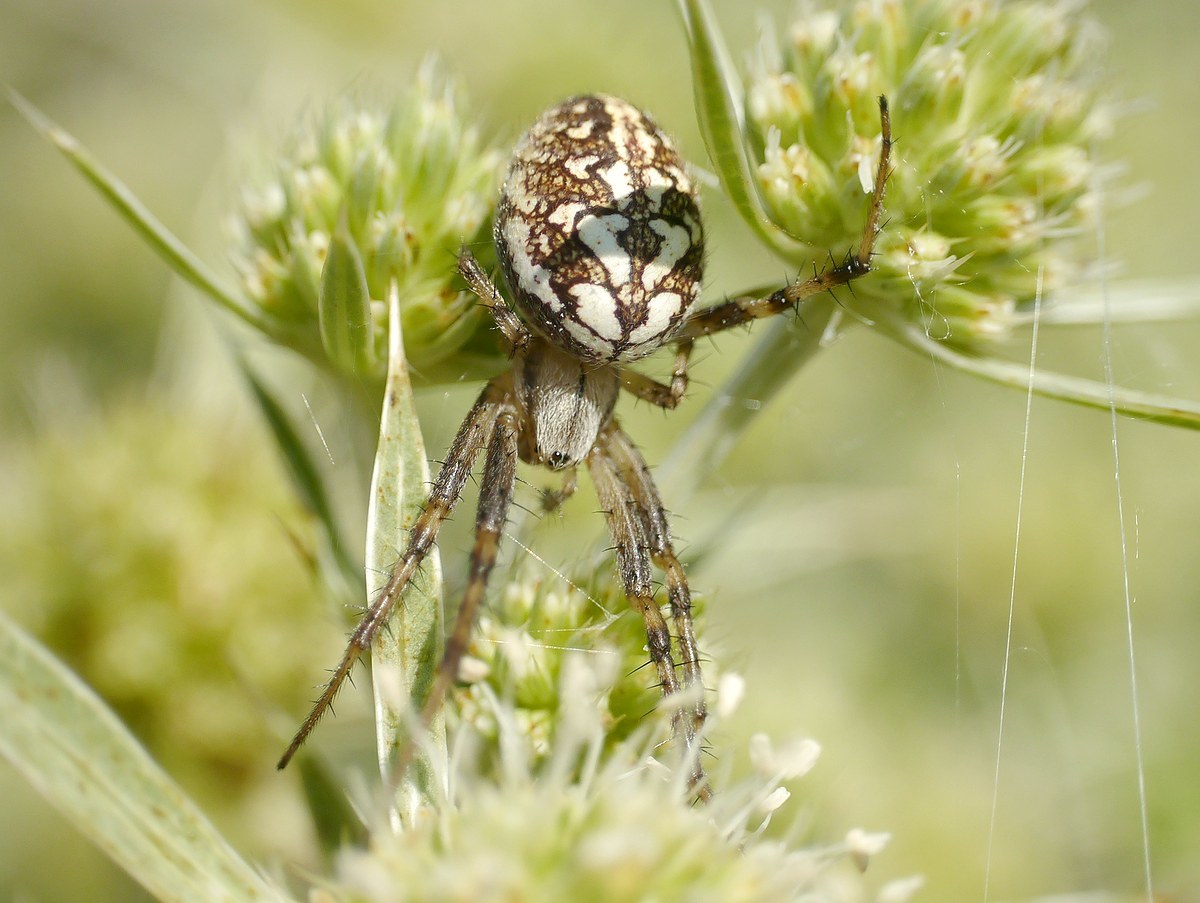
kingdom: Animalia
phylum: Arthropoda
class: Arachnida
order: Araneae
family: Araneidae
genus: Neoscona
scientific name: Neoscona adianta
